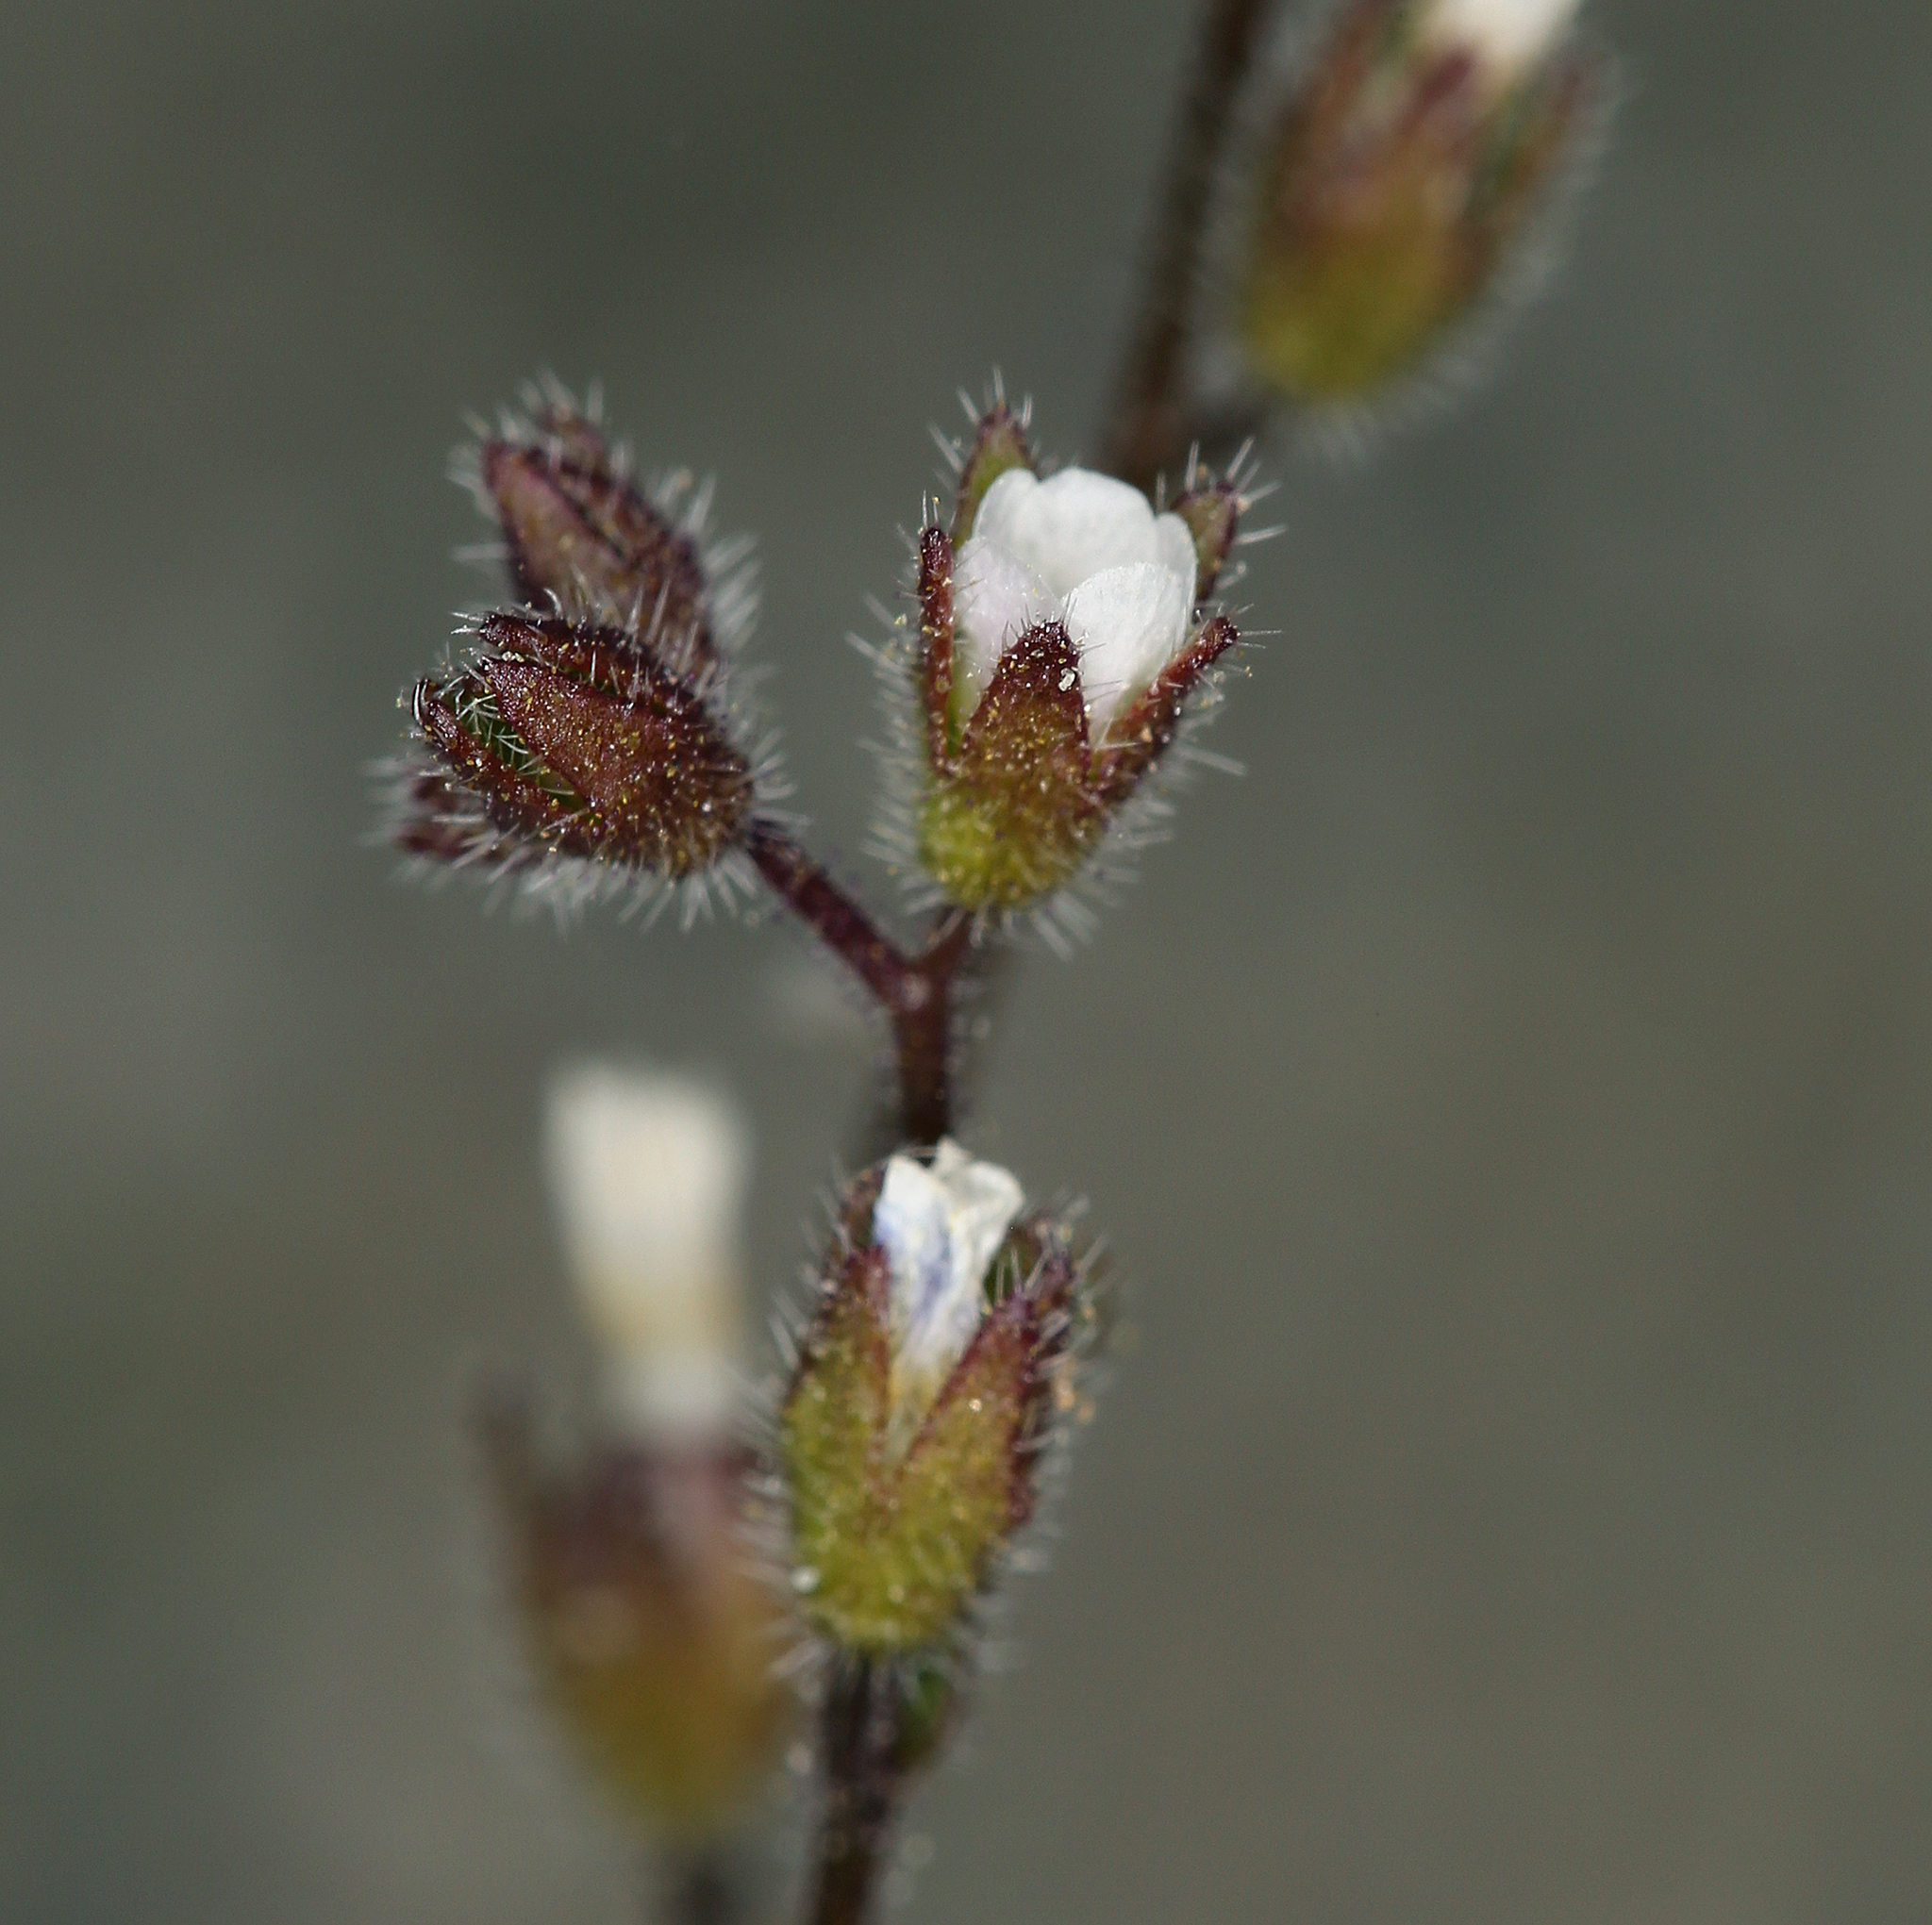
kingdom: Plantae
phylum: Tracheophyta
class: Magnoliopsida
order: Boraginales
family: Hydrophyllaceae
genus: Eucrypta
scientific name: Eucrypta micrantha
